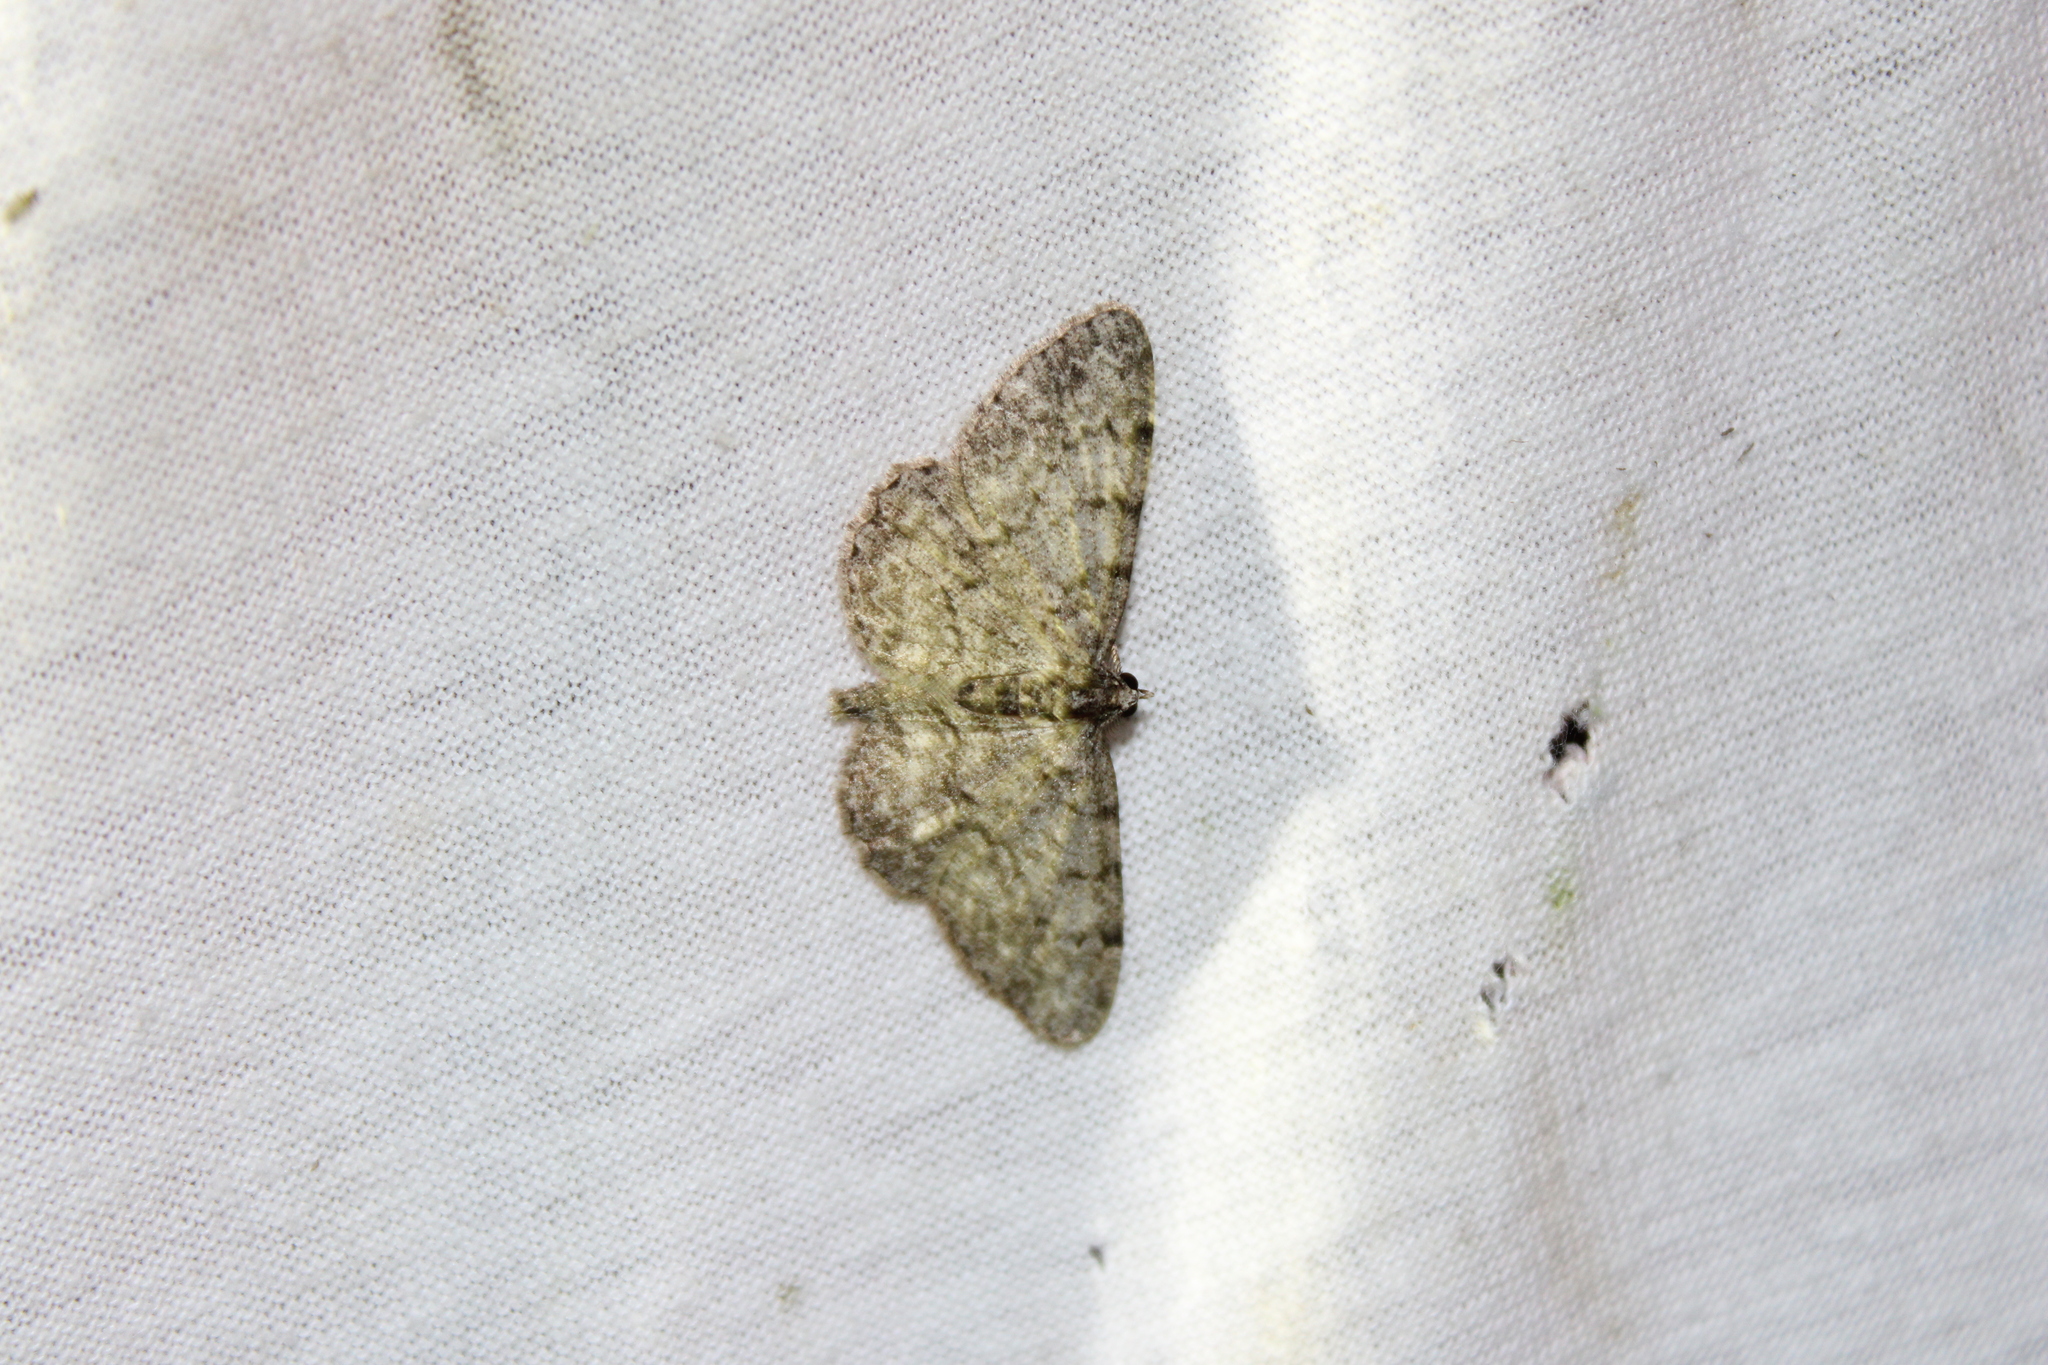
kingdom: Animalia
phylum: Arthropoda
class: Insecta
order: Lepidoptera
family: Geometridae
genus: Protoboarmia
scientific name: Protoboarmia porcelaria
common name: Porcelain gray
